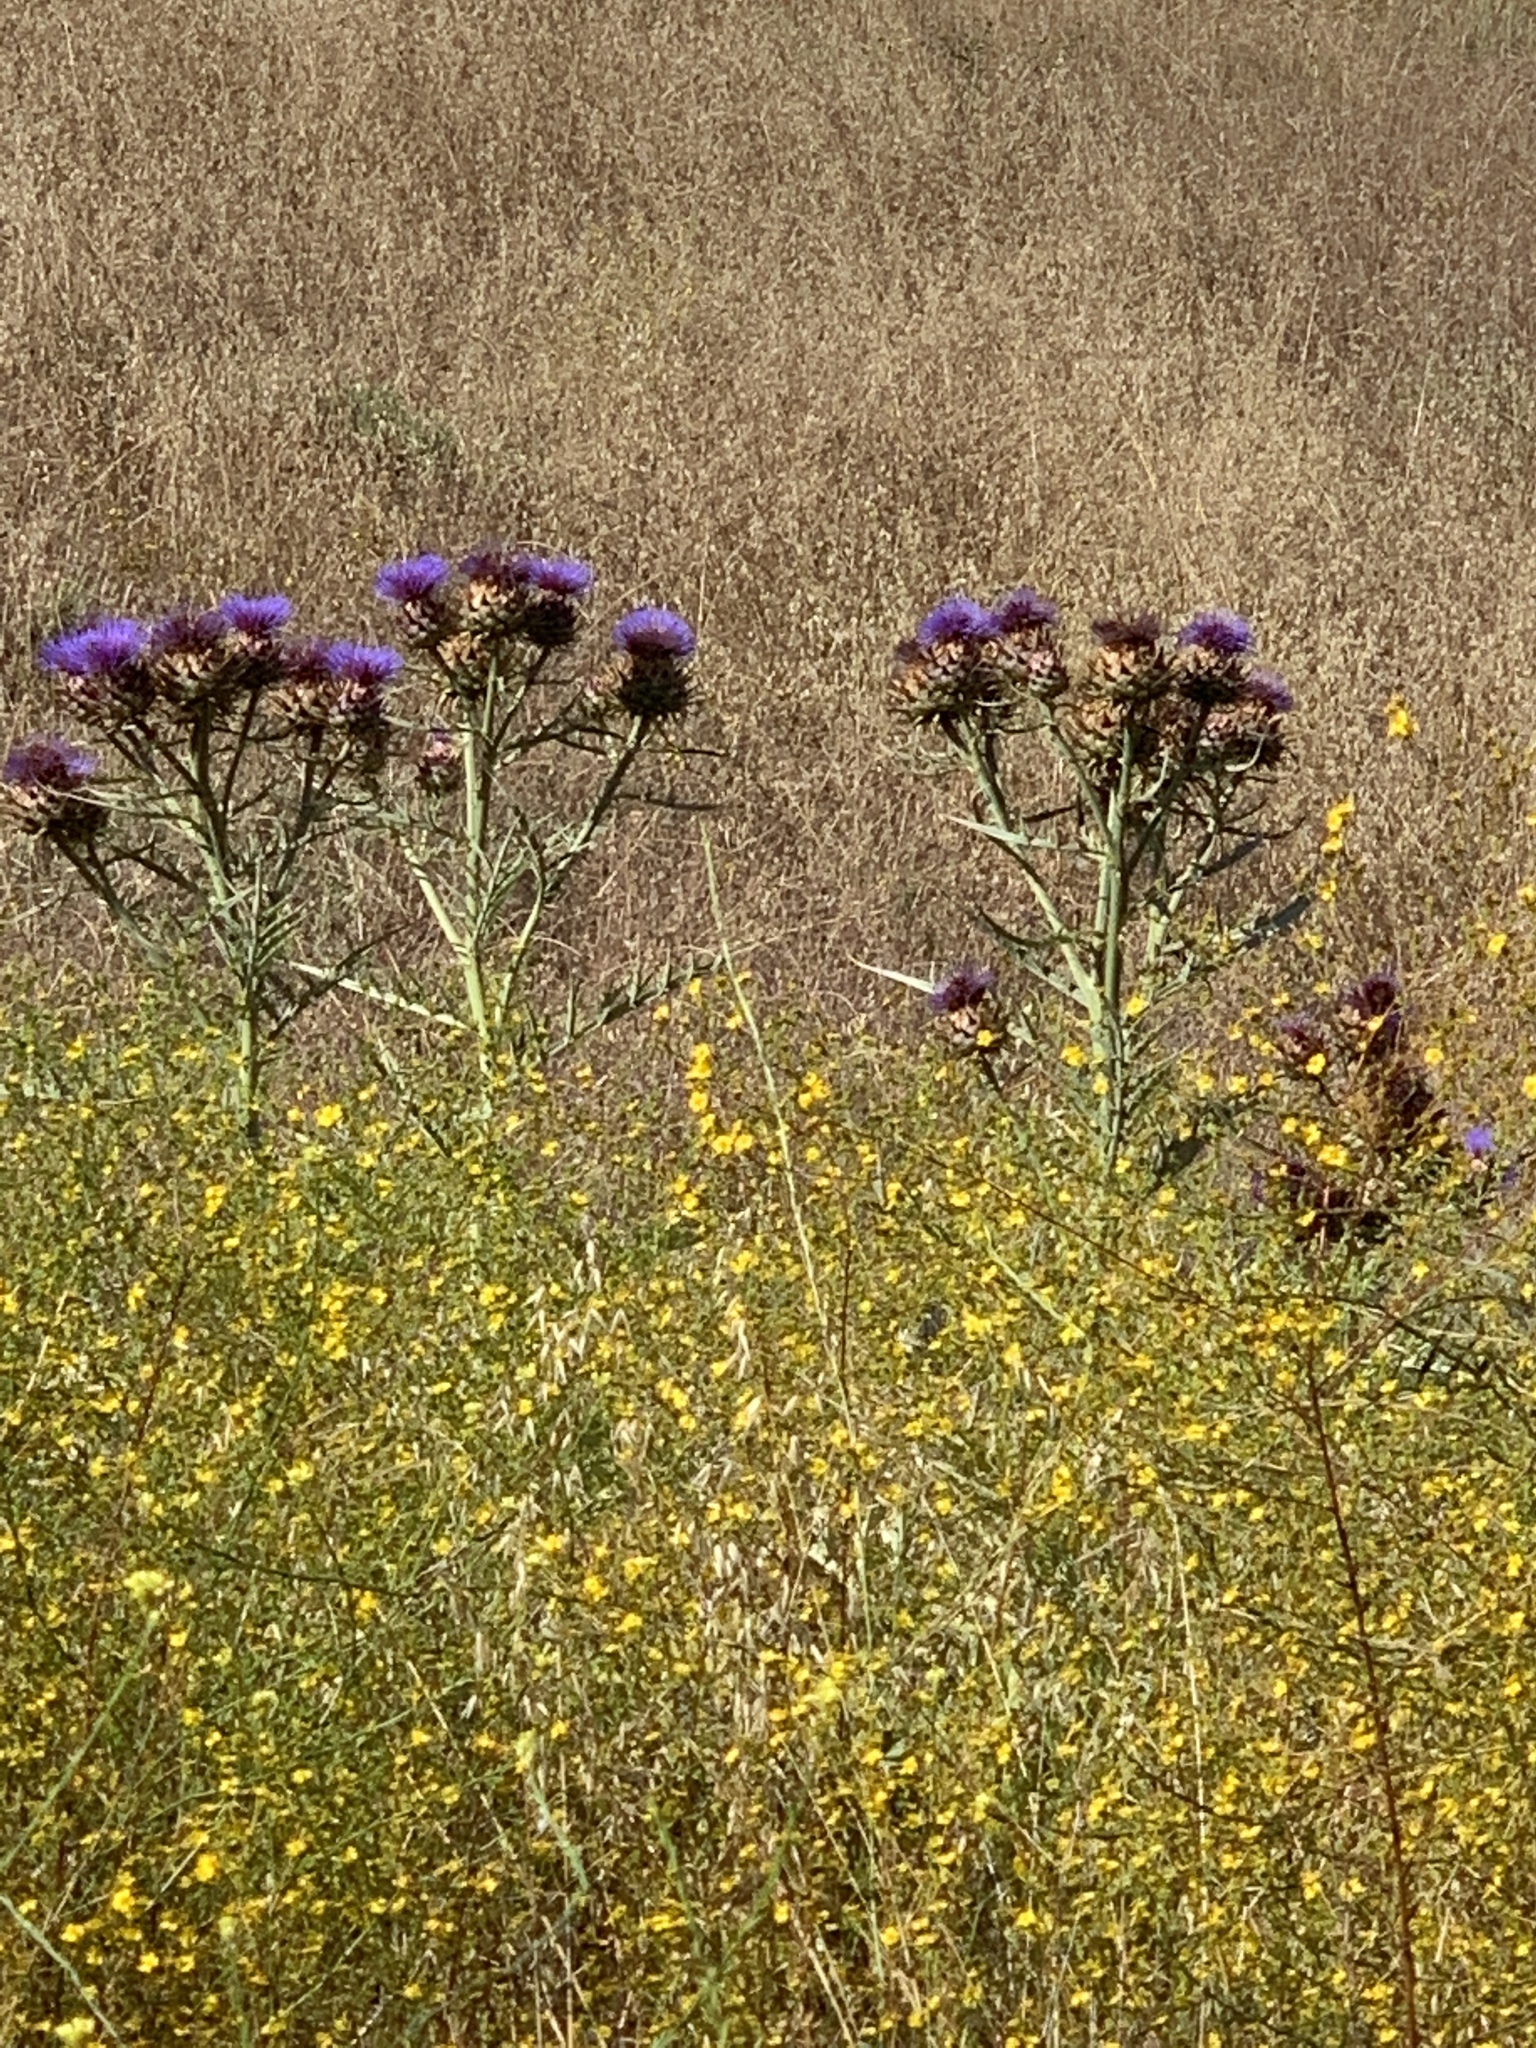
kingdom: Plantae
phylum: Tracheophyta
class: Magnoliopsida
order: Asterales
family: Asteraceae
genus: Cynara
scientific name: Cynara cardunculus
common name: Globe artichoke
